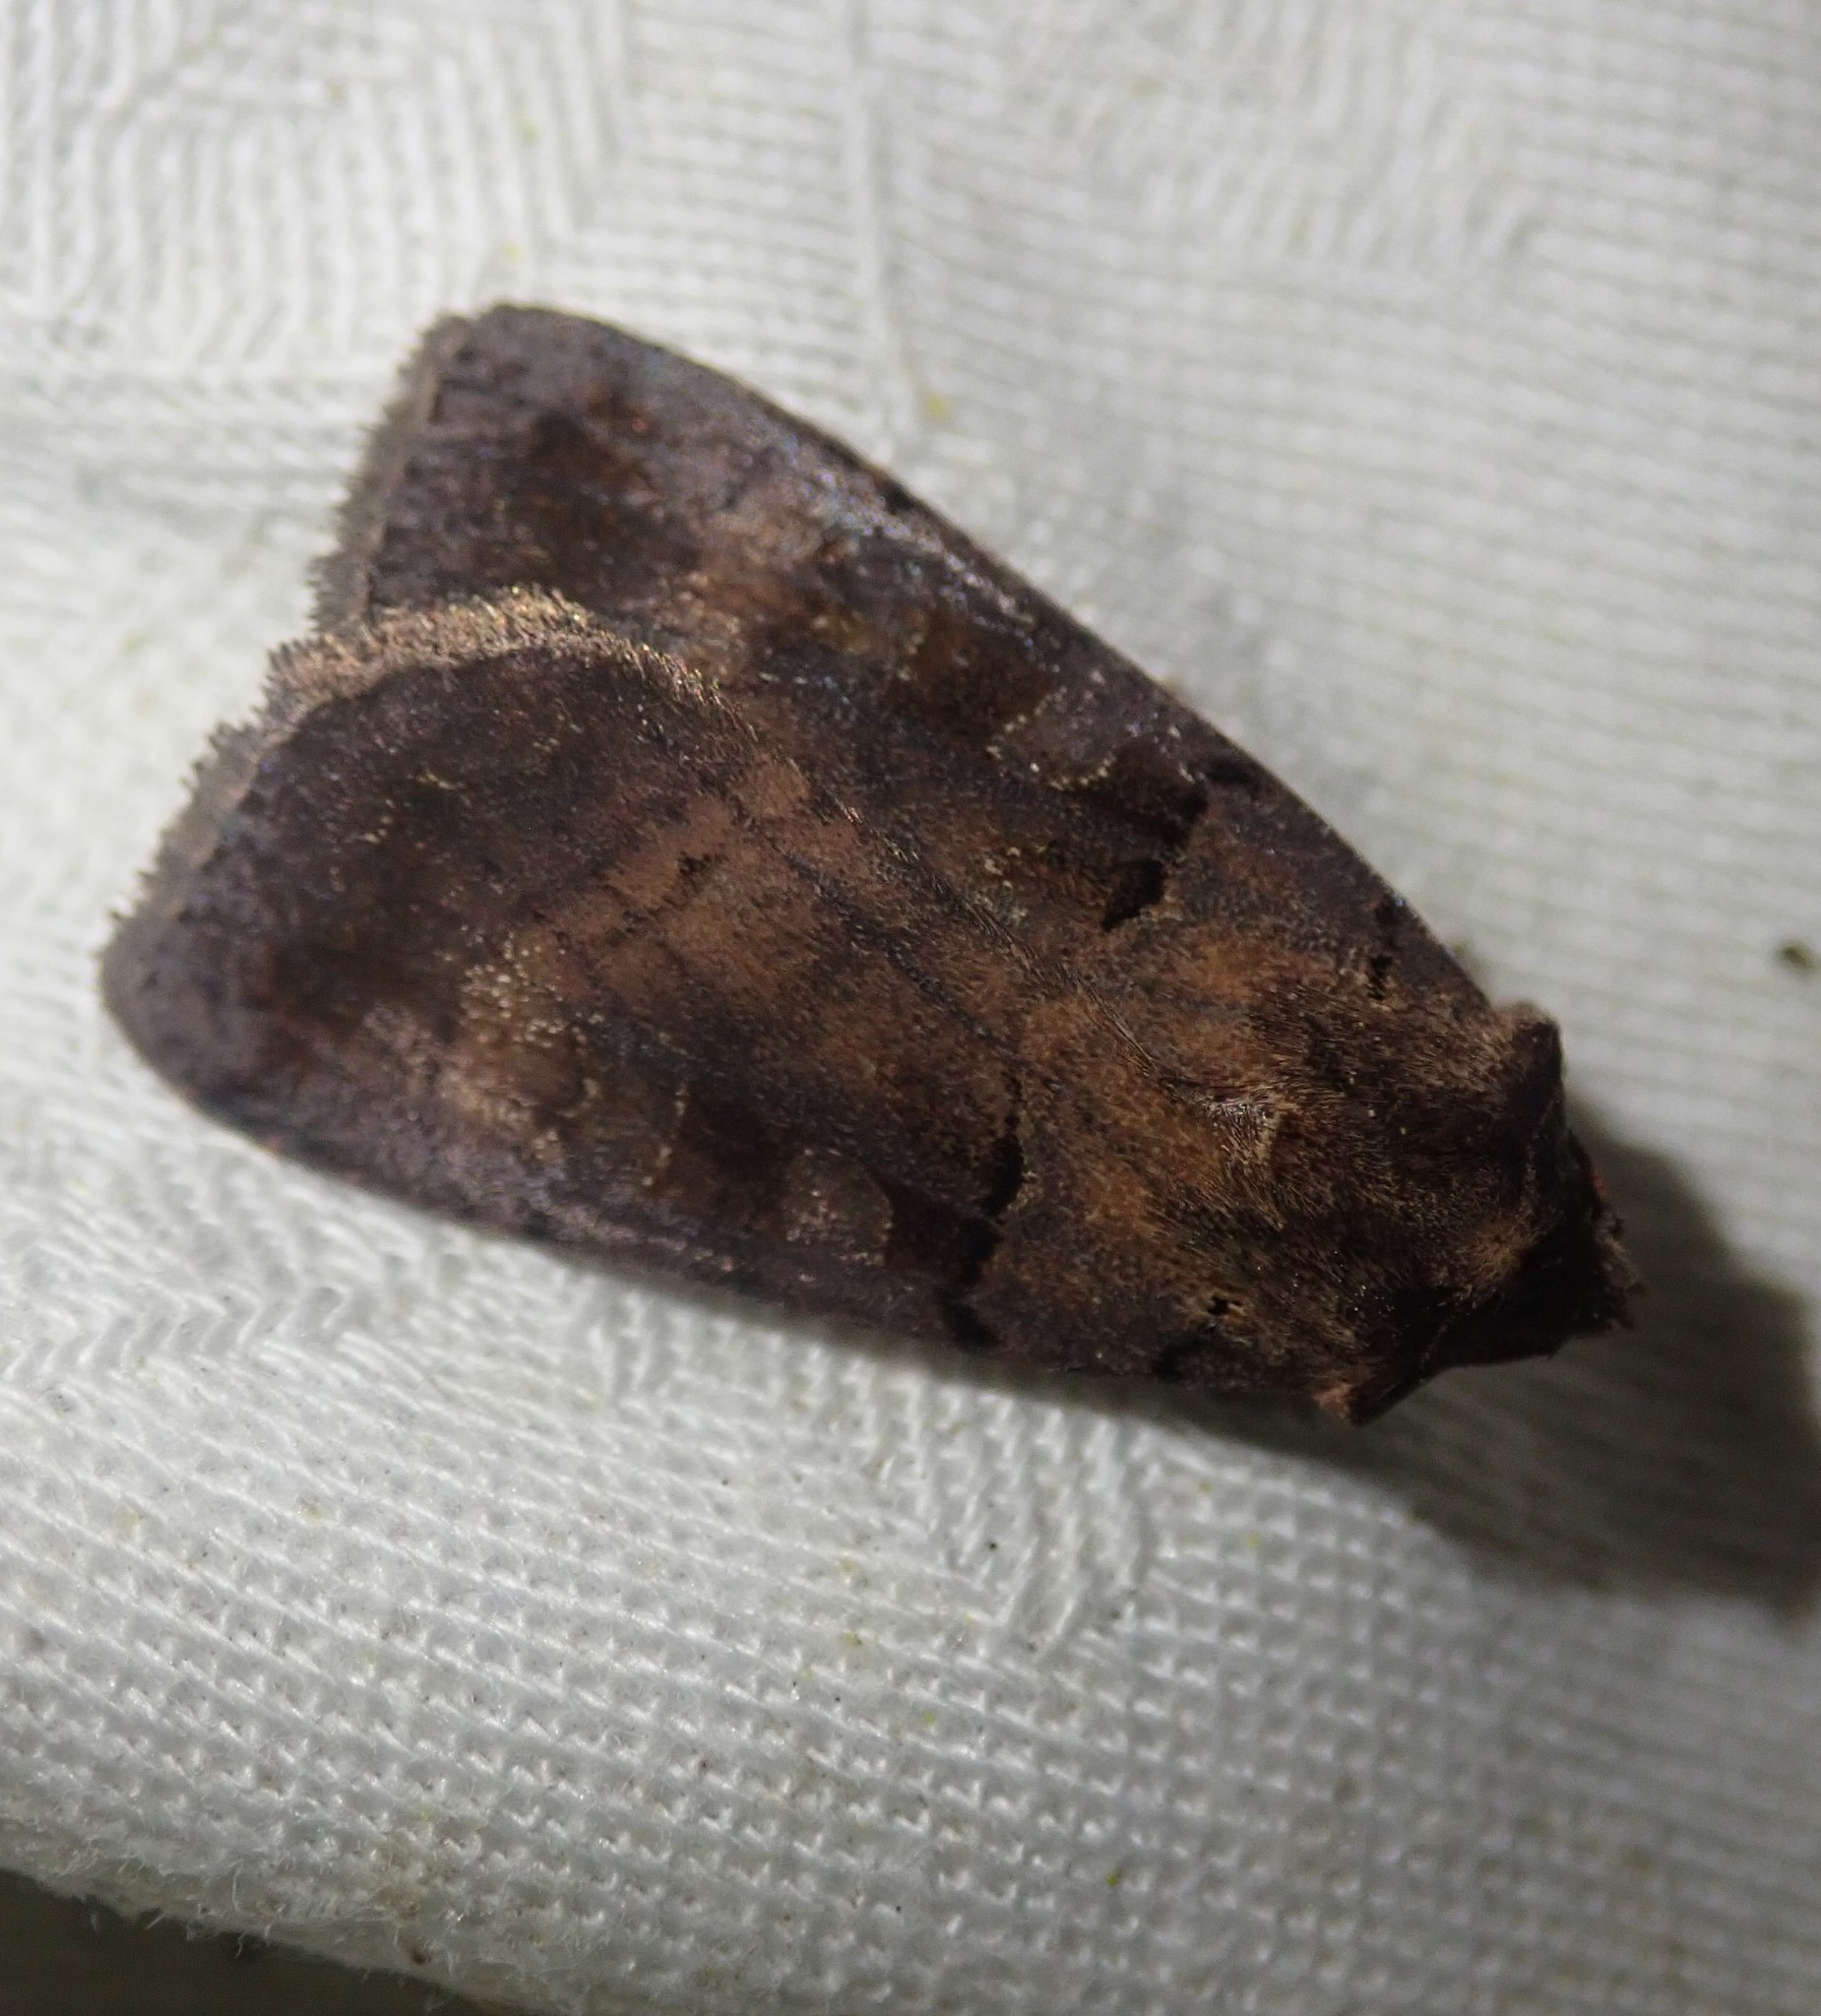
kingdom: Animalia
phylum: Arthropoda
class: Insecta
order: Lepidoptera
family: Noctuidae
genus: Xestia
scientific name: Xestia stigmatica
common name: Square-spotted clay
